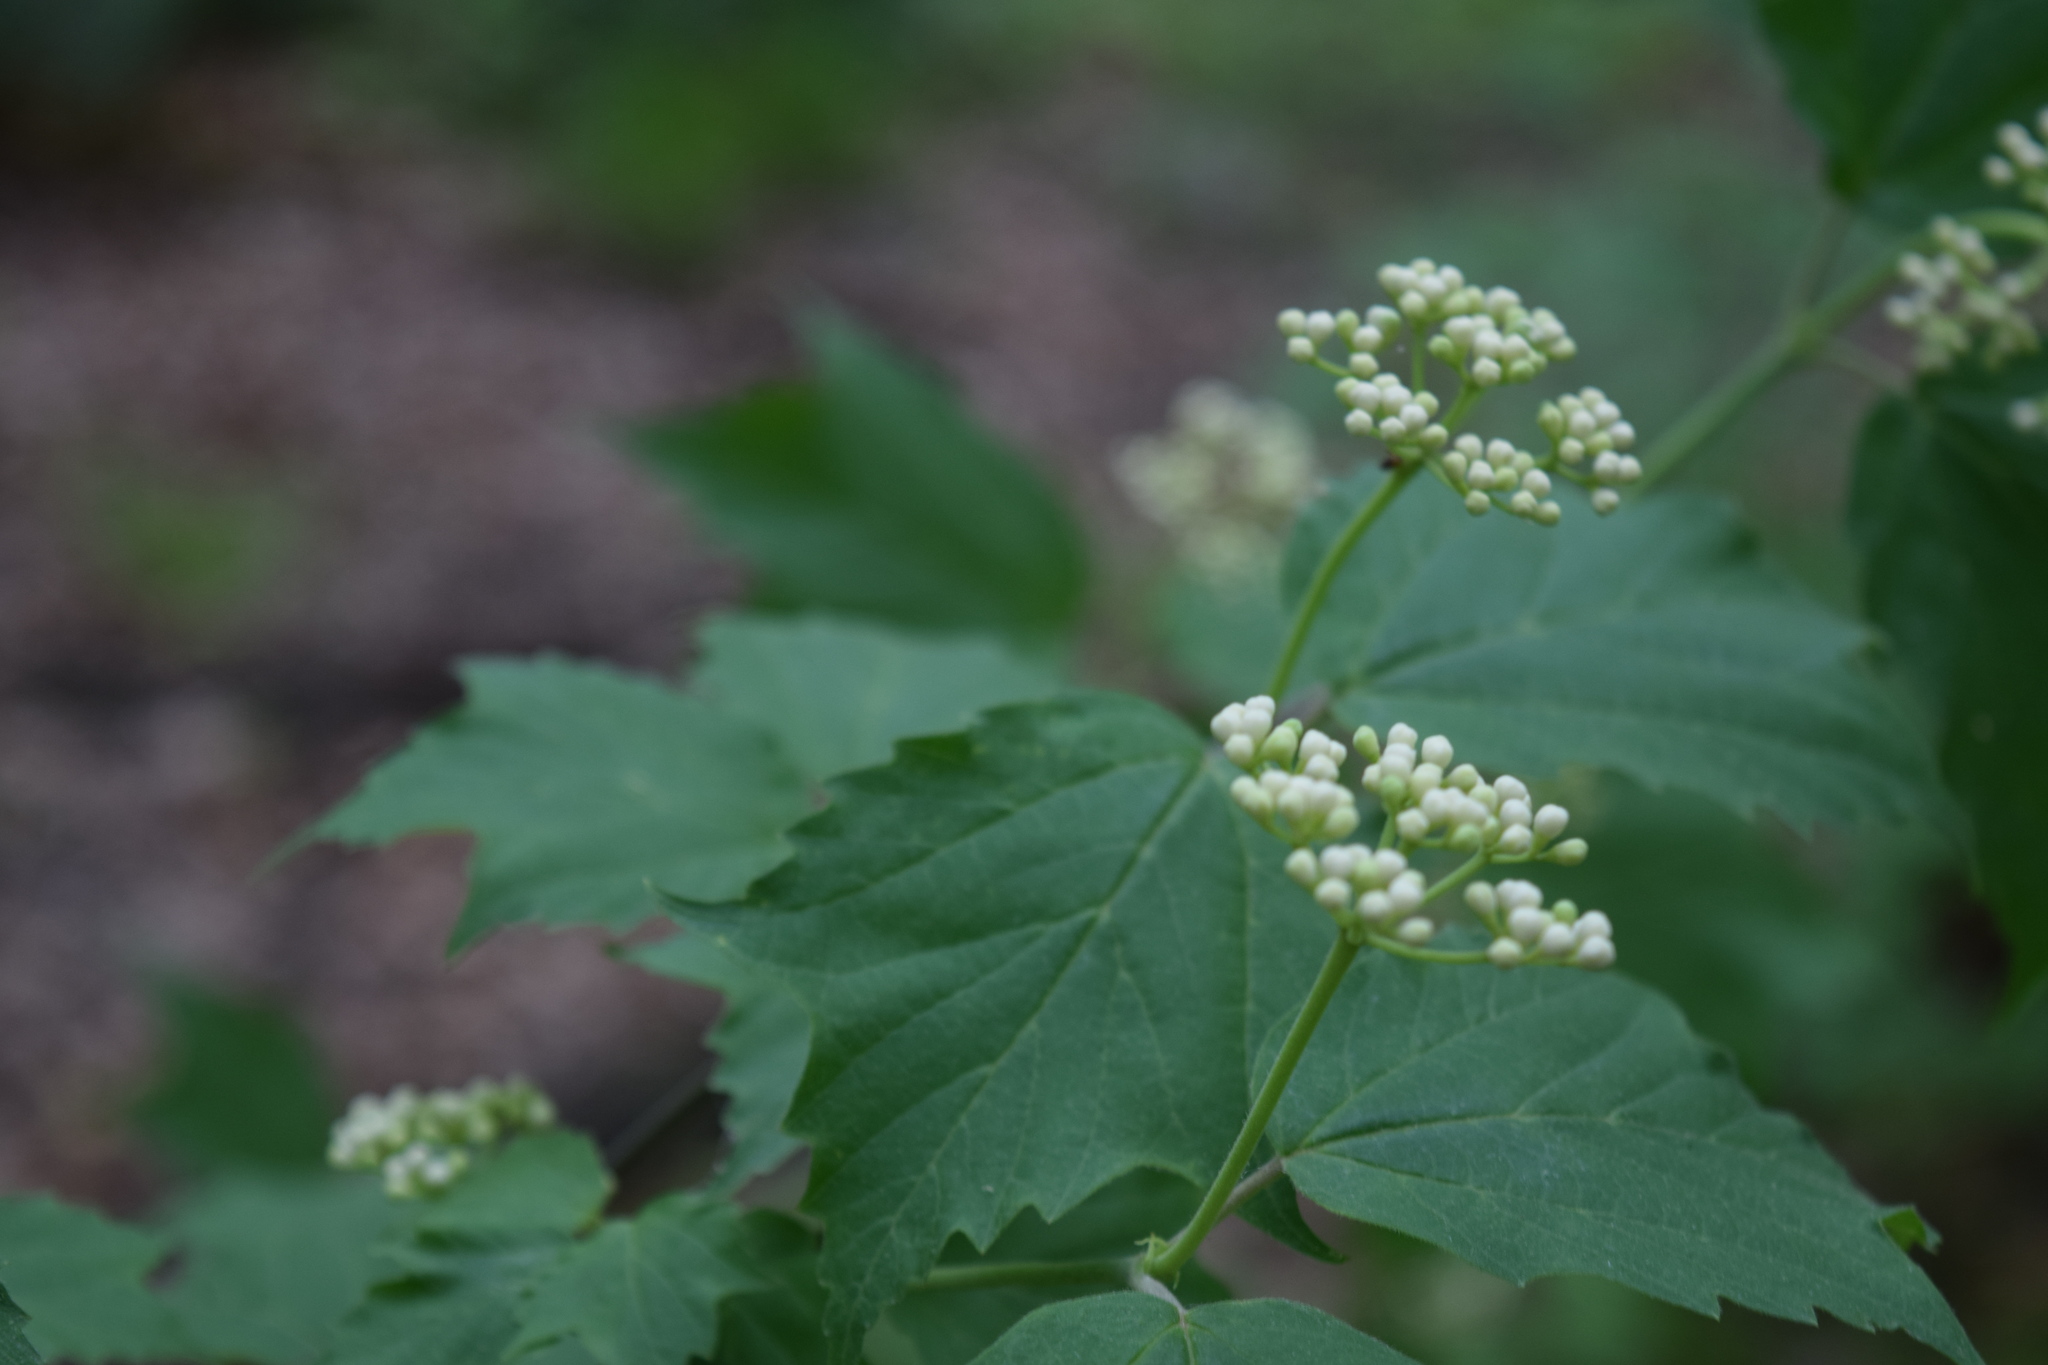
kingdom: Plantae
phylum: Tracheophyta
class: Magnoliopsida
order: Dipsacales
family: Viburnaceae
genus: Viburnum
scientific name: Viburnum acerifolium
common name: Dockmackie
